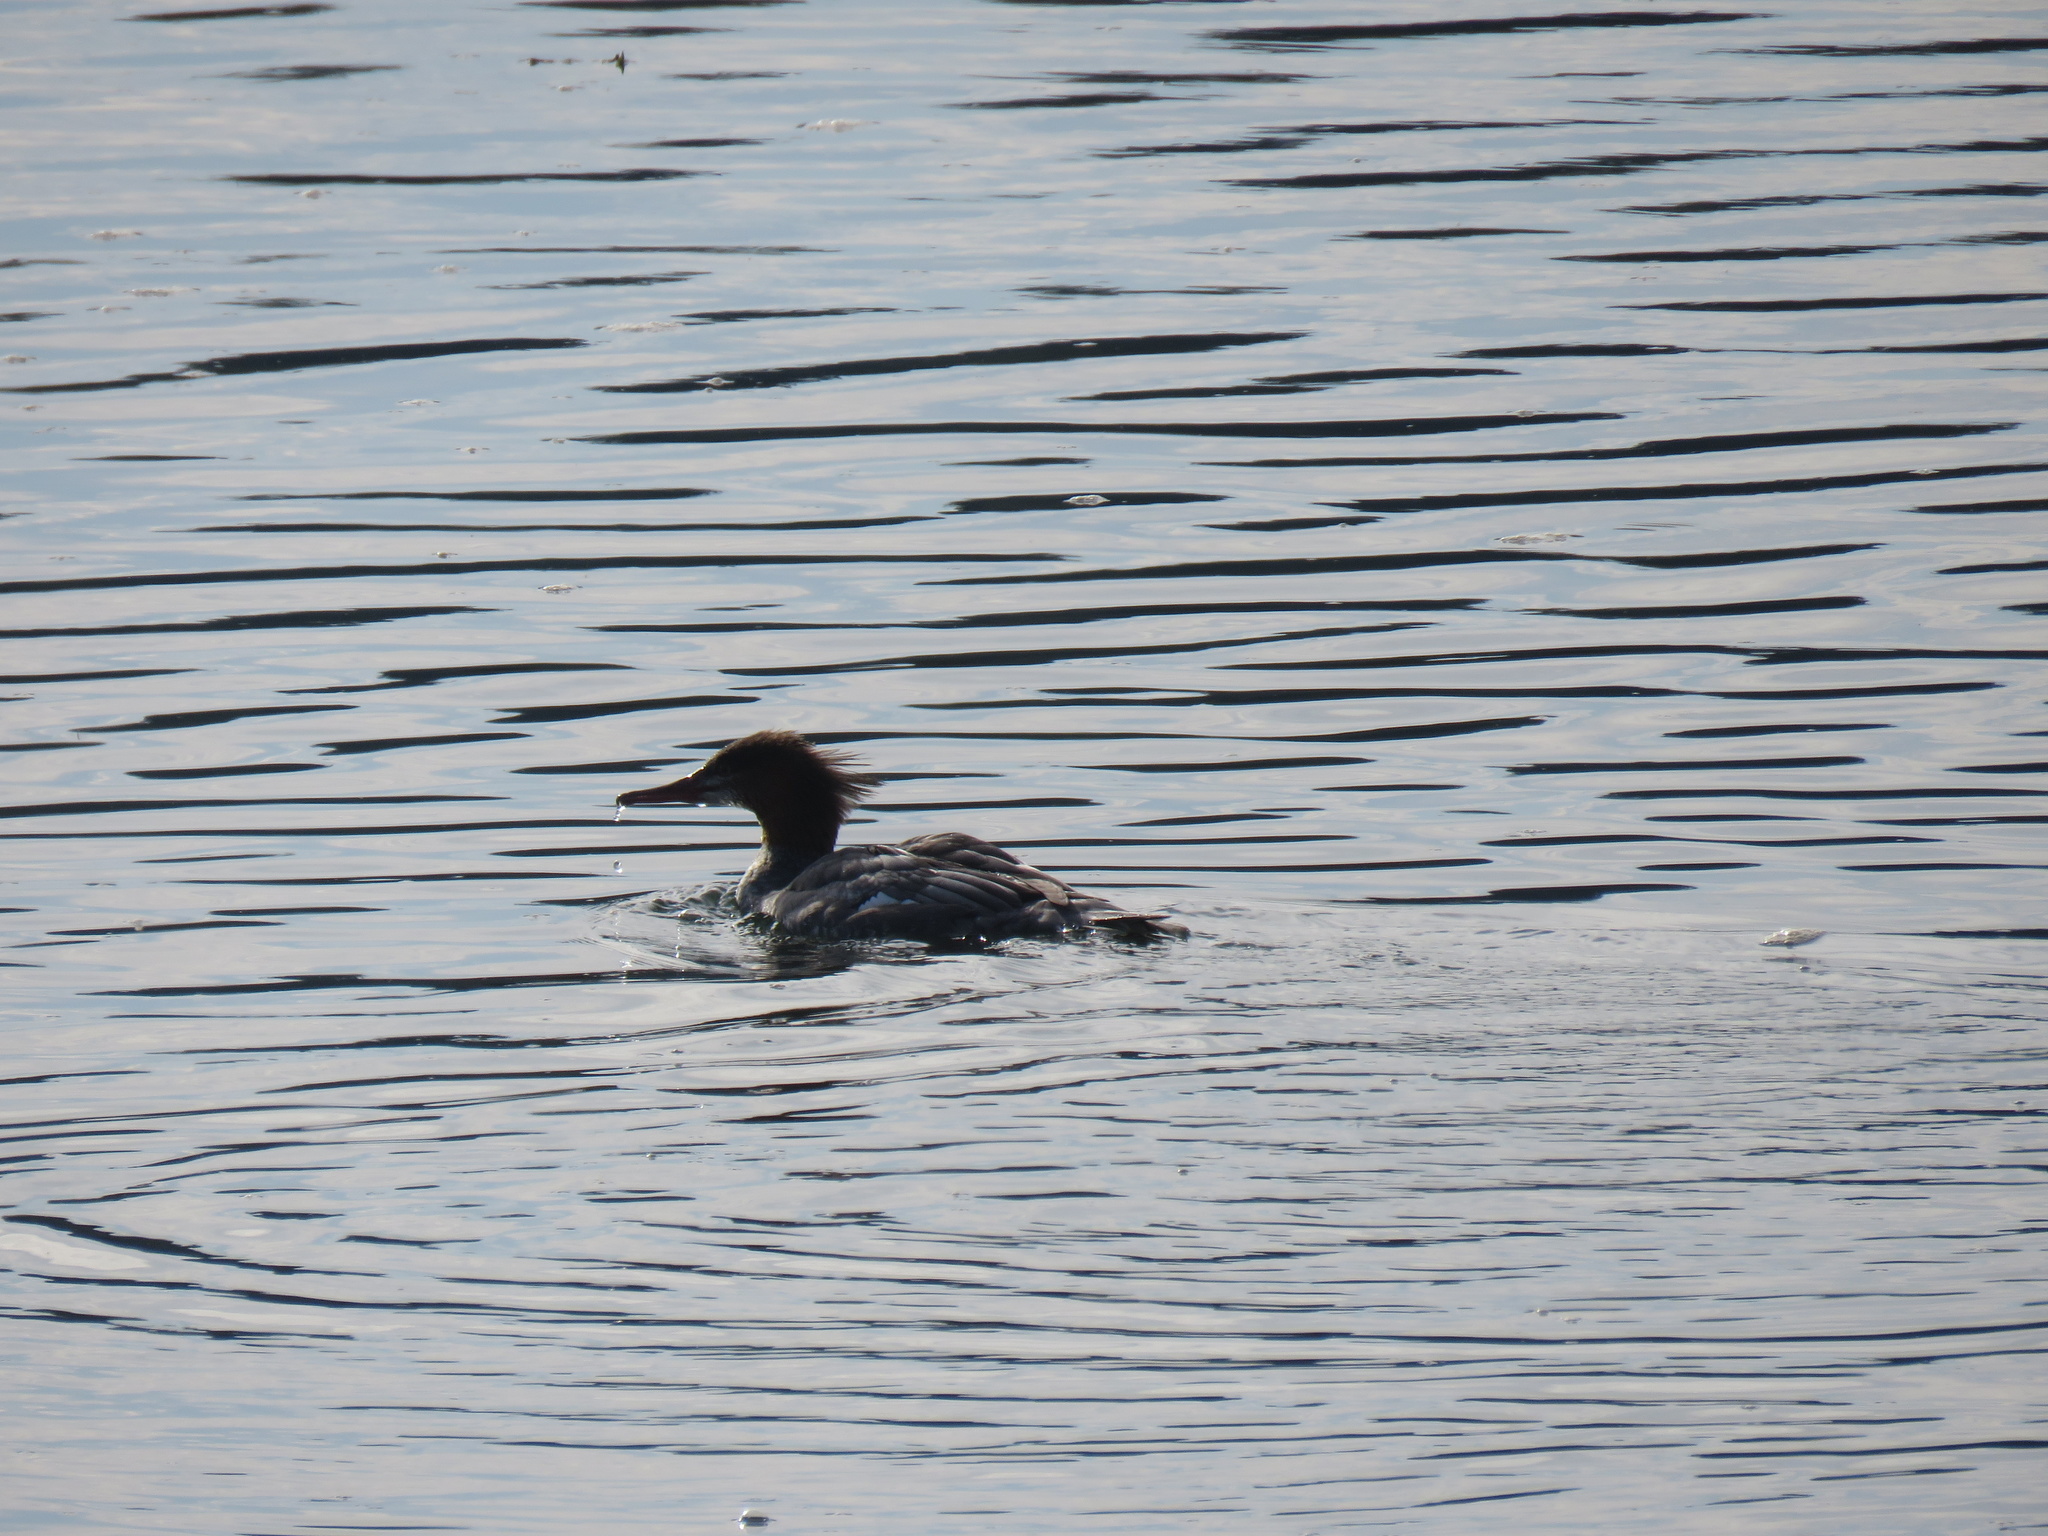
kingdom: Animalia
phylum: Chordata
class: Aves
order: Anseriformes
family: Anatidae
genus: Mergus
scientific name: Mergus merganser
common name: Common merganser
